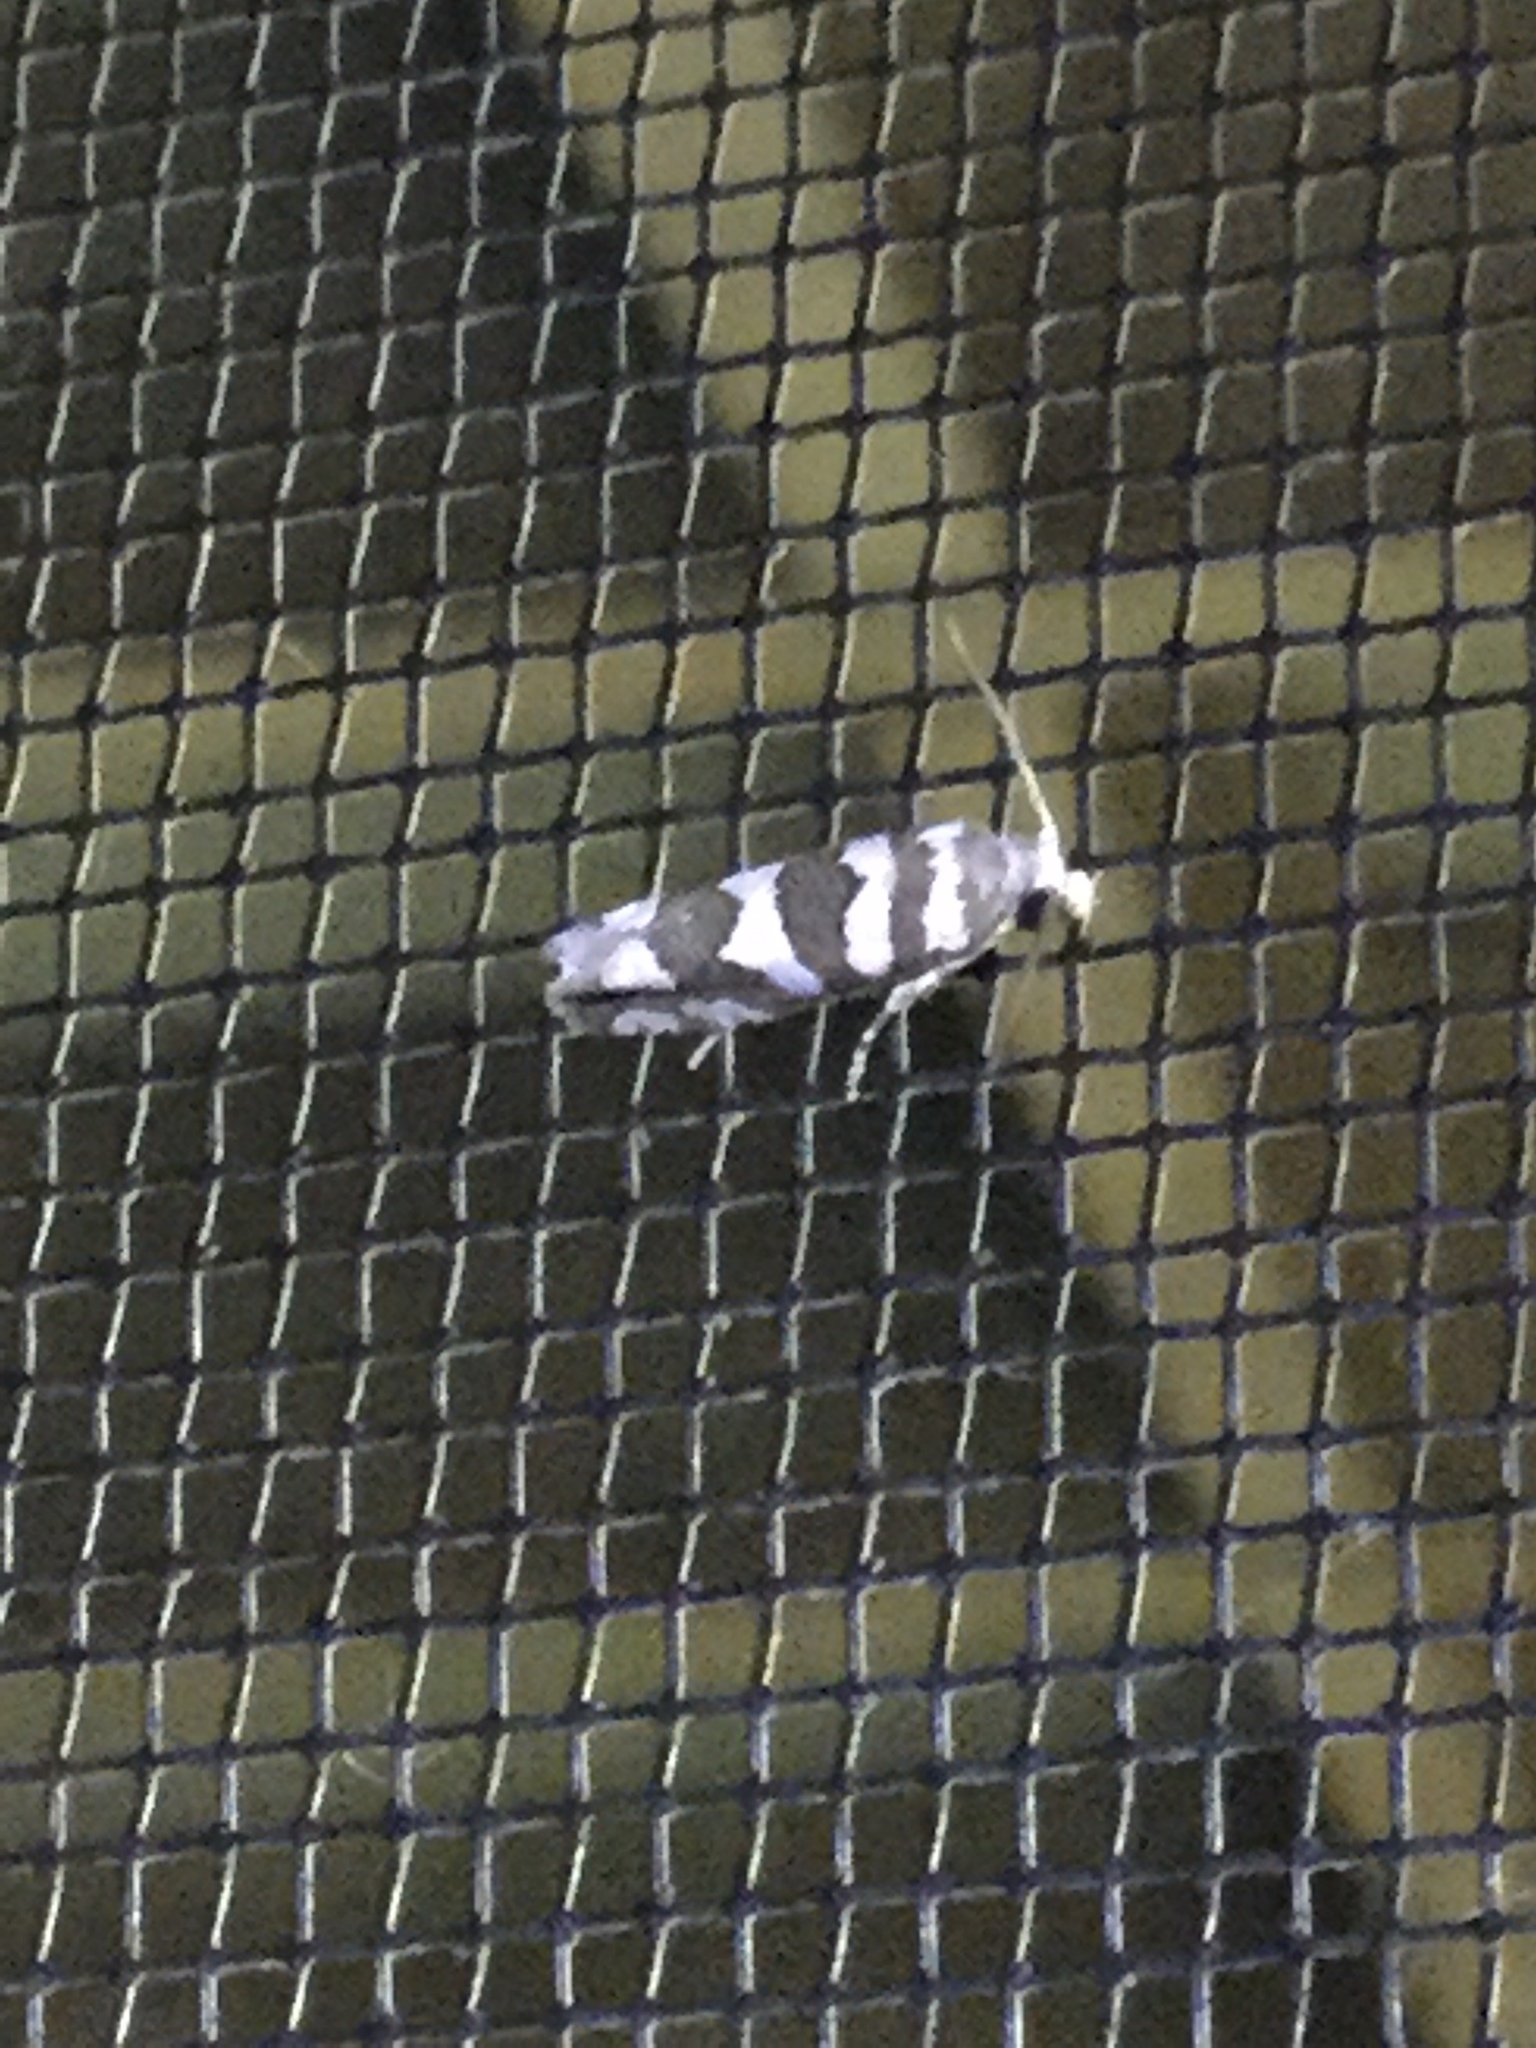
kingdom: Animalia
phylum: Arthropoda
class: Insecta
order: Lepidoptera
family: Tortricidae
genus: Pelochrista
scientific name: Pelochrista robinsonana
